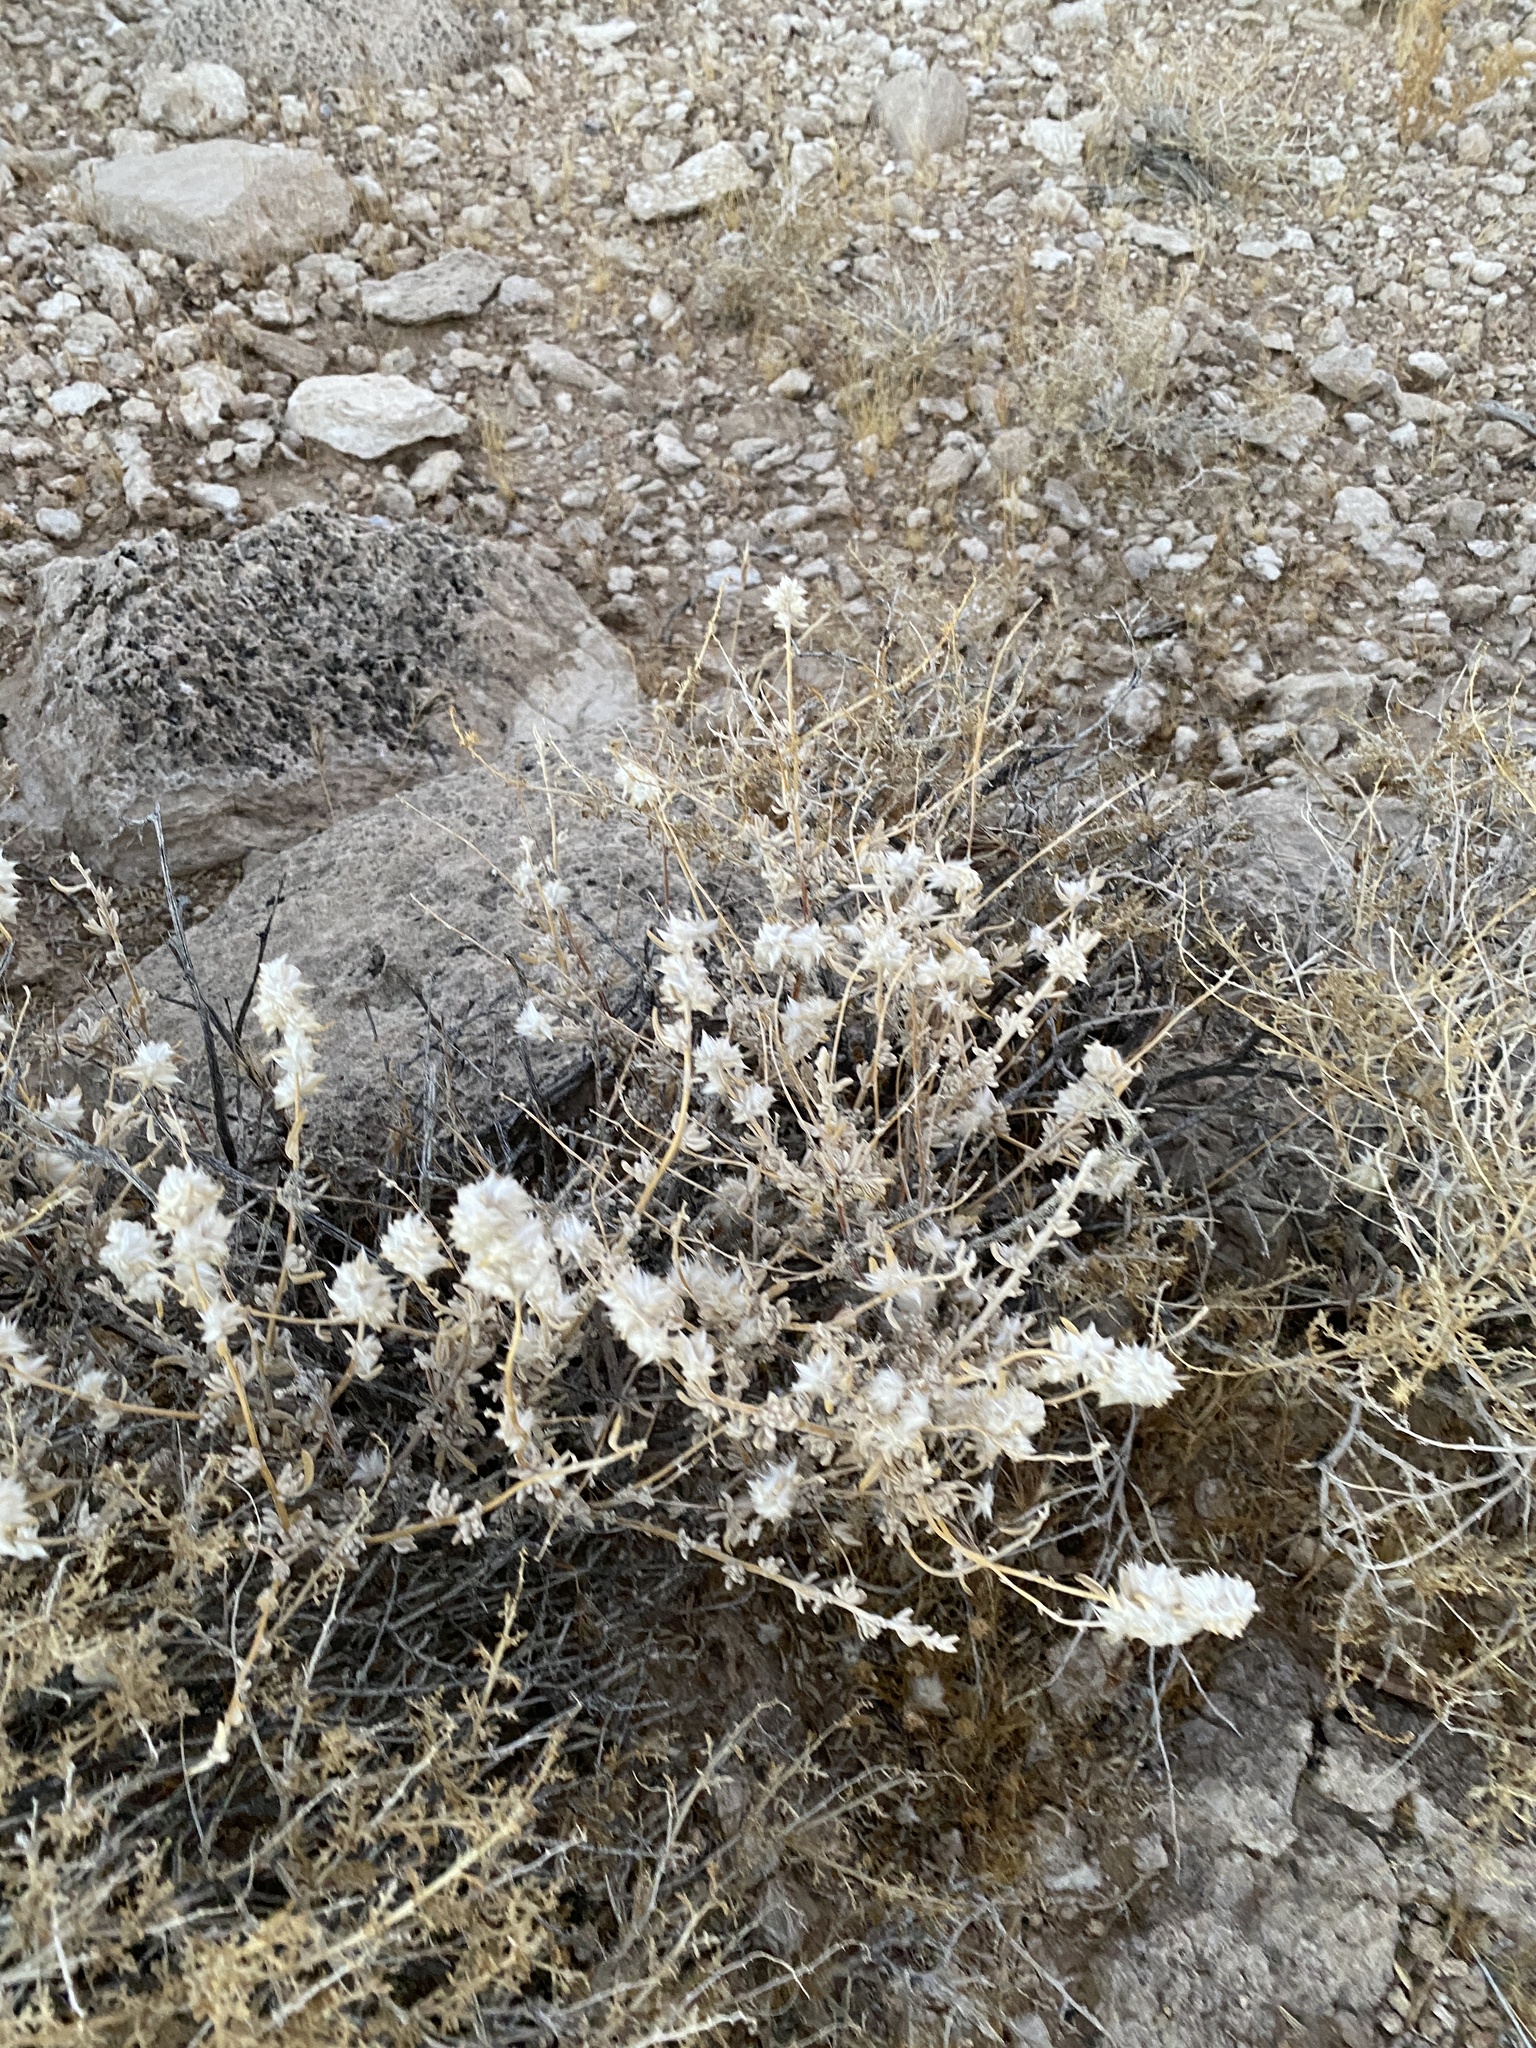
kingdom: Plantae
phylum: Tracheophyta
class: Magnoliopsida
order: Caryophyllales
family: Amaranthaceae
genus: Krascheninnikovia
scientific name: Krascheninnikovia lanata
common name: Winterfat
